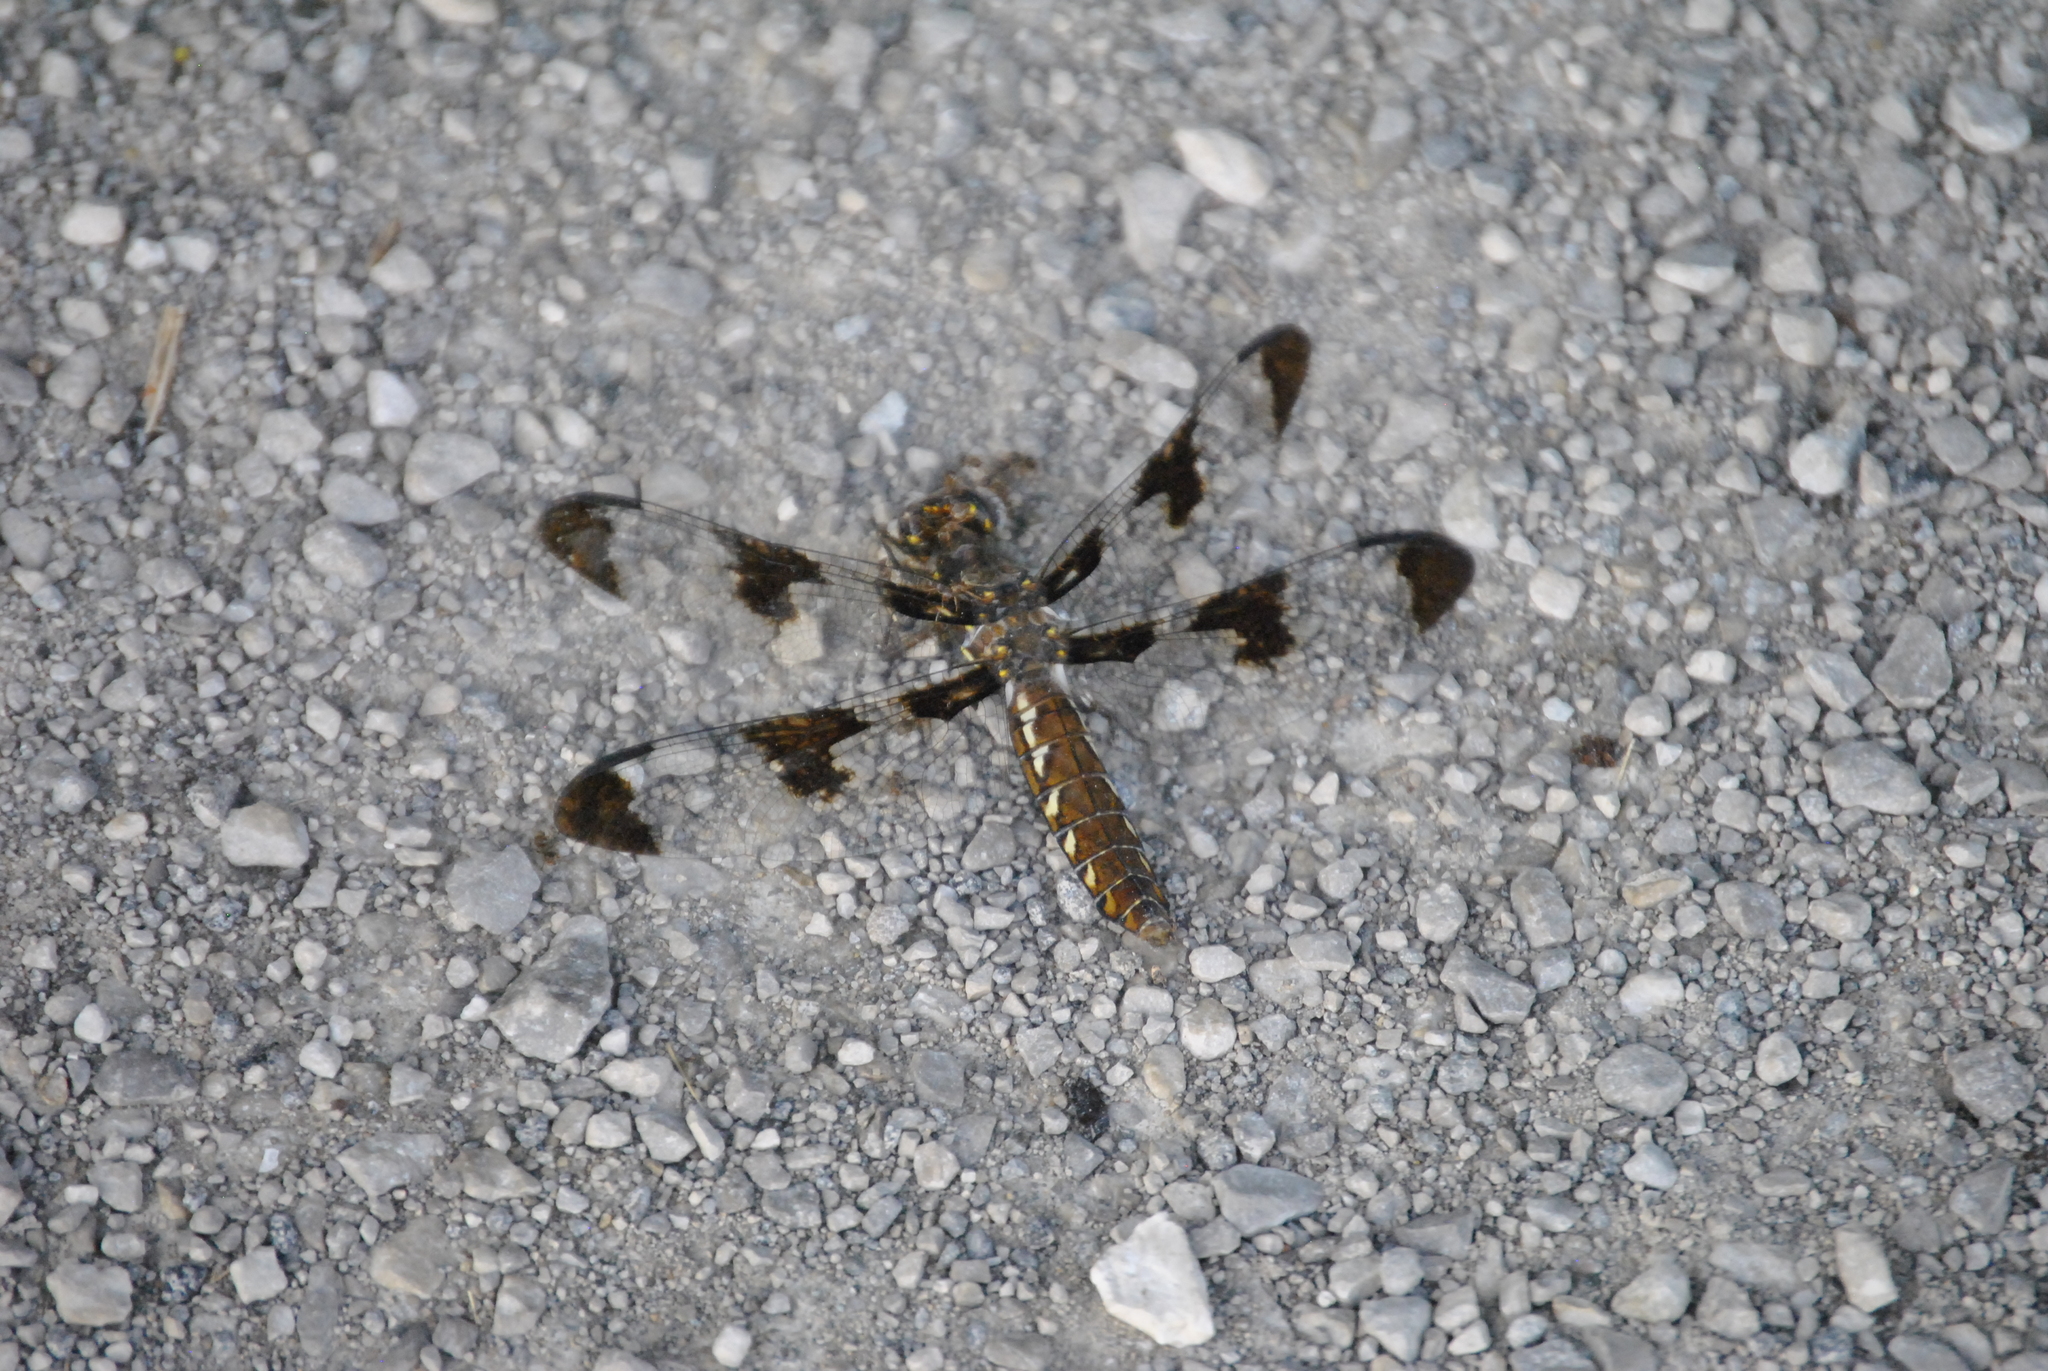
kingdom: Animalia
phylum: Arthropoda
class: Insecta
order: Odonata
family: Libellulidae
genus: Plathemis
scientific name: Plathemis lydia
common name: Common whitetail
